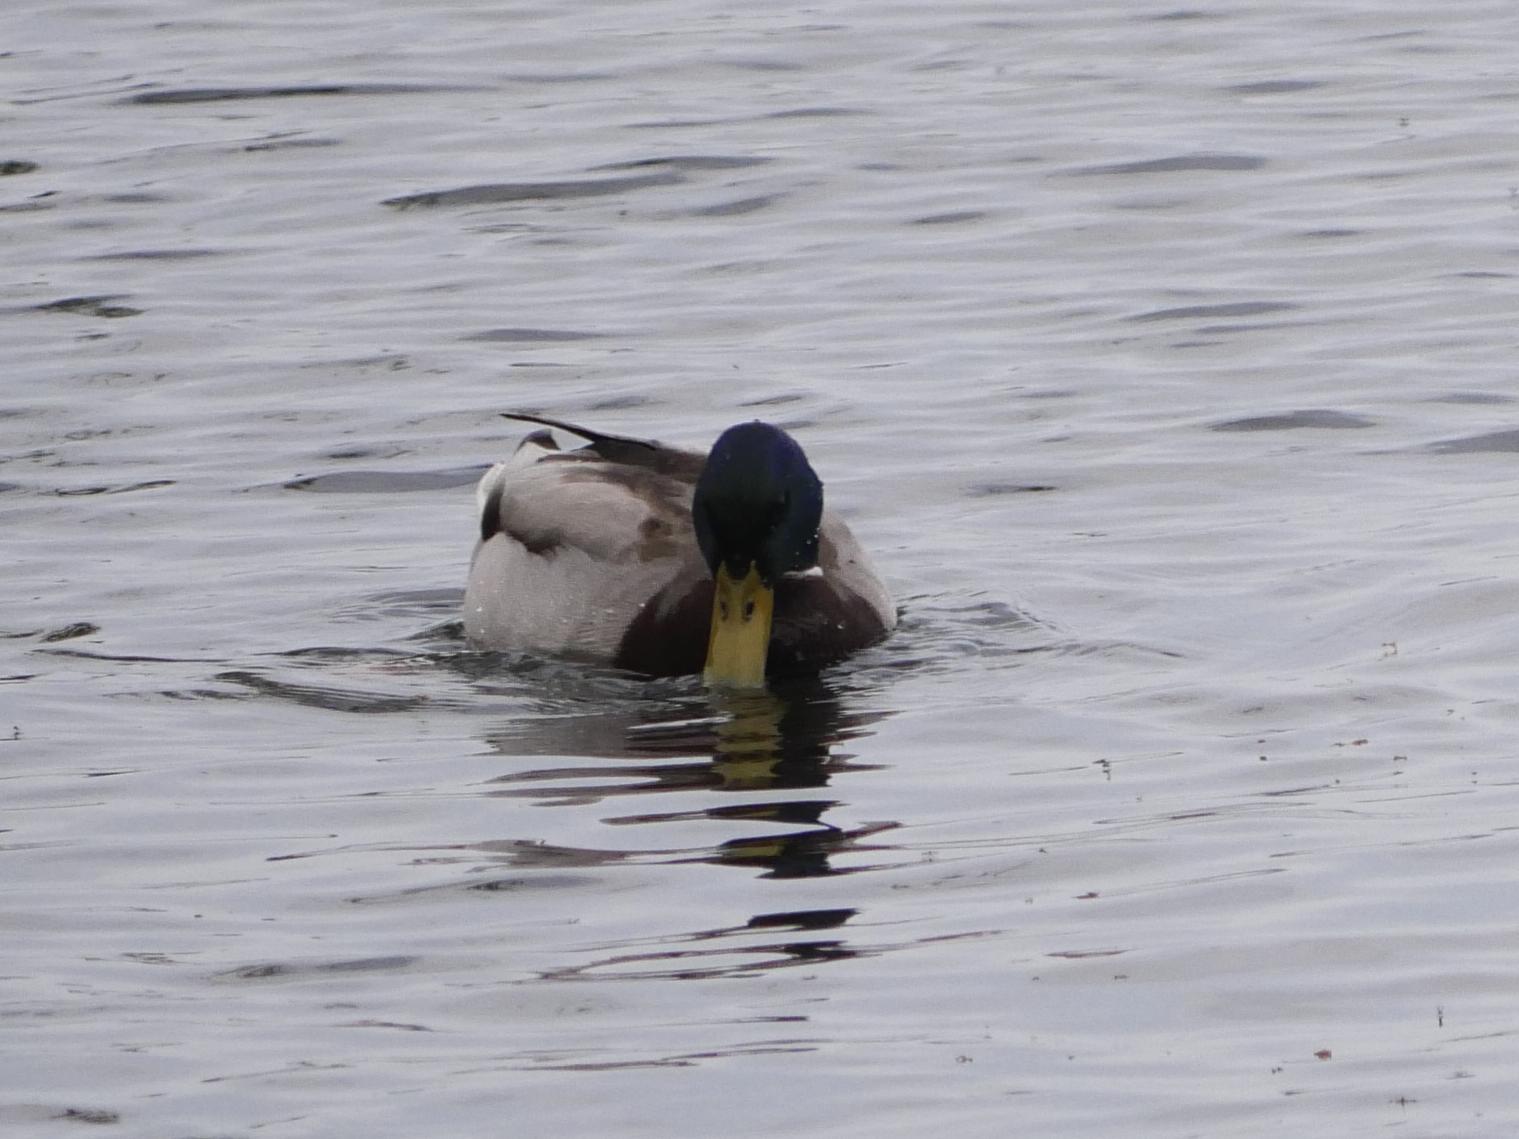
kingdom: Animalia
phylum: Chordata
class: Aves
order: Anseriformes
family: Anatidae
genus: Anas
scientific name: Anas platyrhynchos
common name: Mallard
